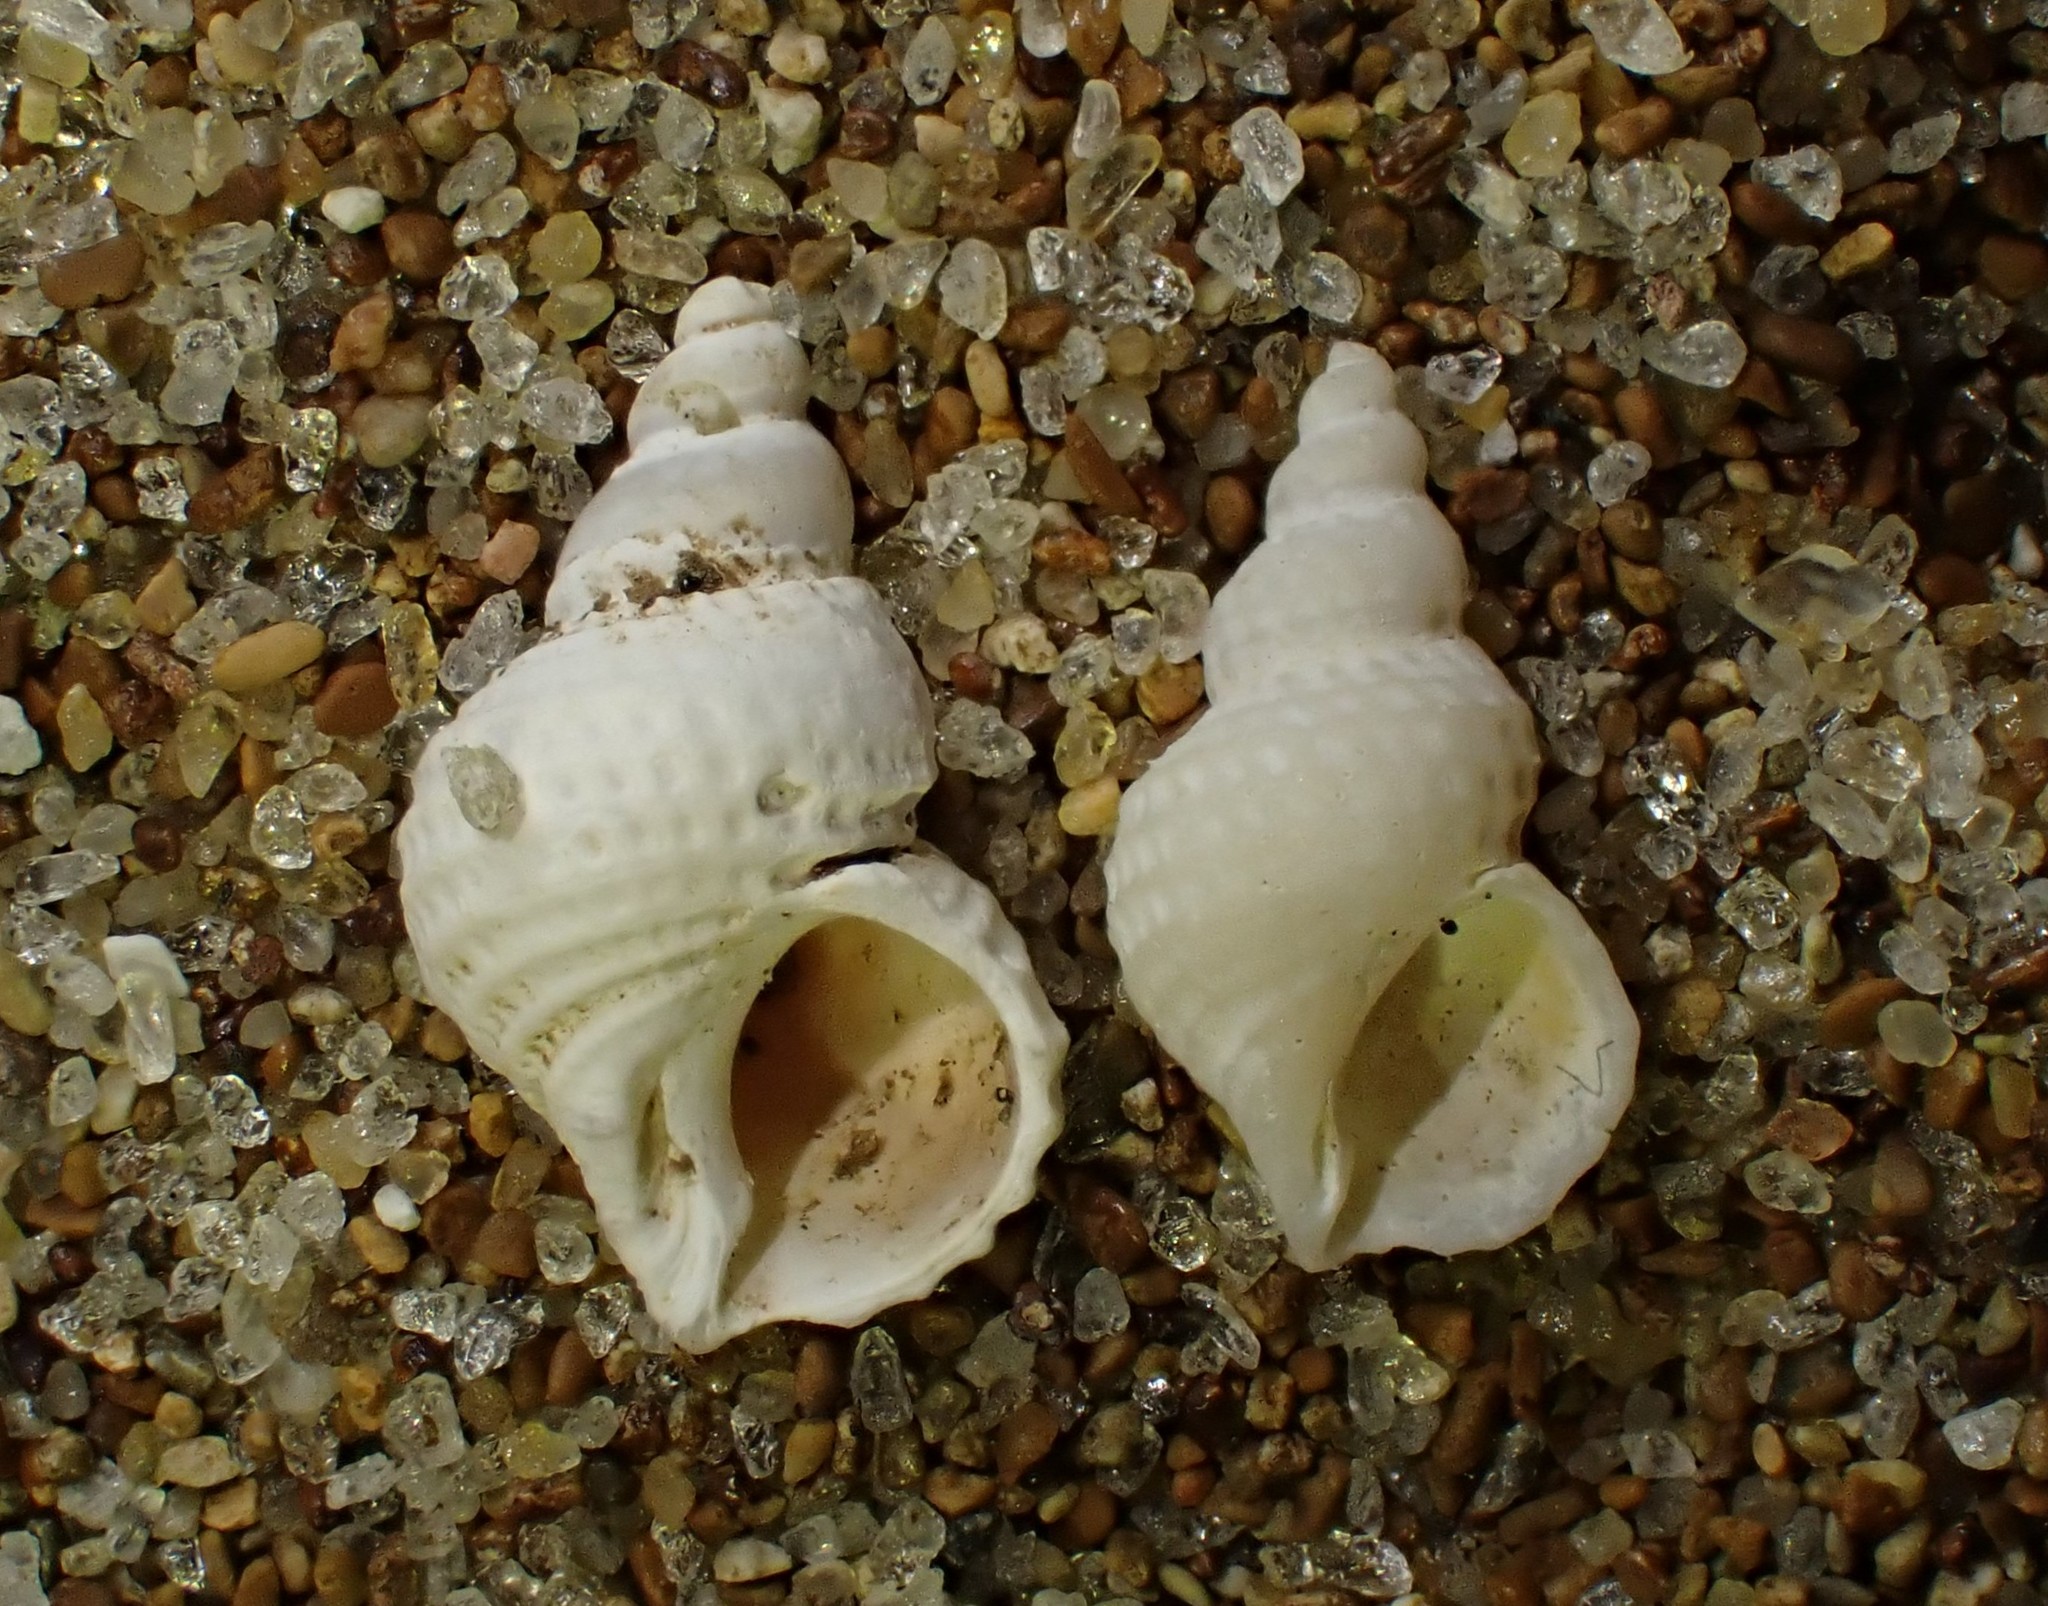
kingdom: Animalia
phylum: Mollusca
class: Gastropoda
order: Littorinimorpha
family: Capulidae
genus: Trichosirius
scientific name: Trichosirius inornatus
